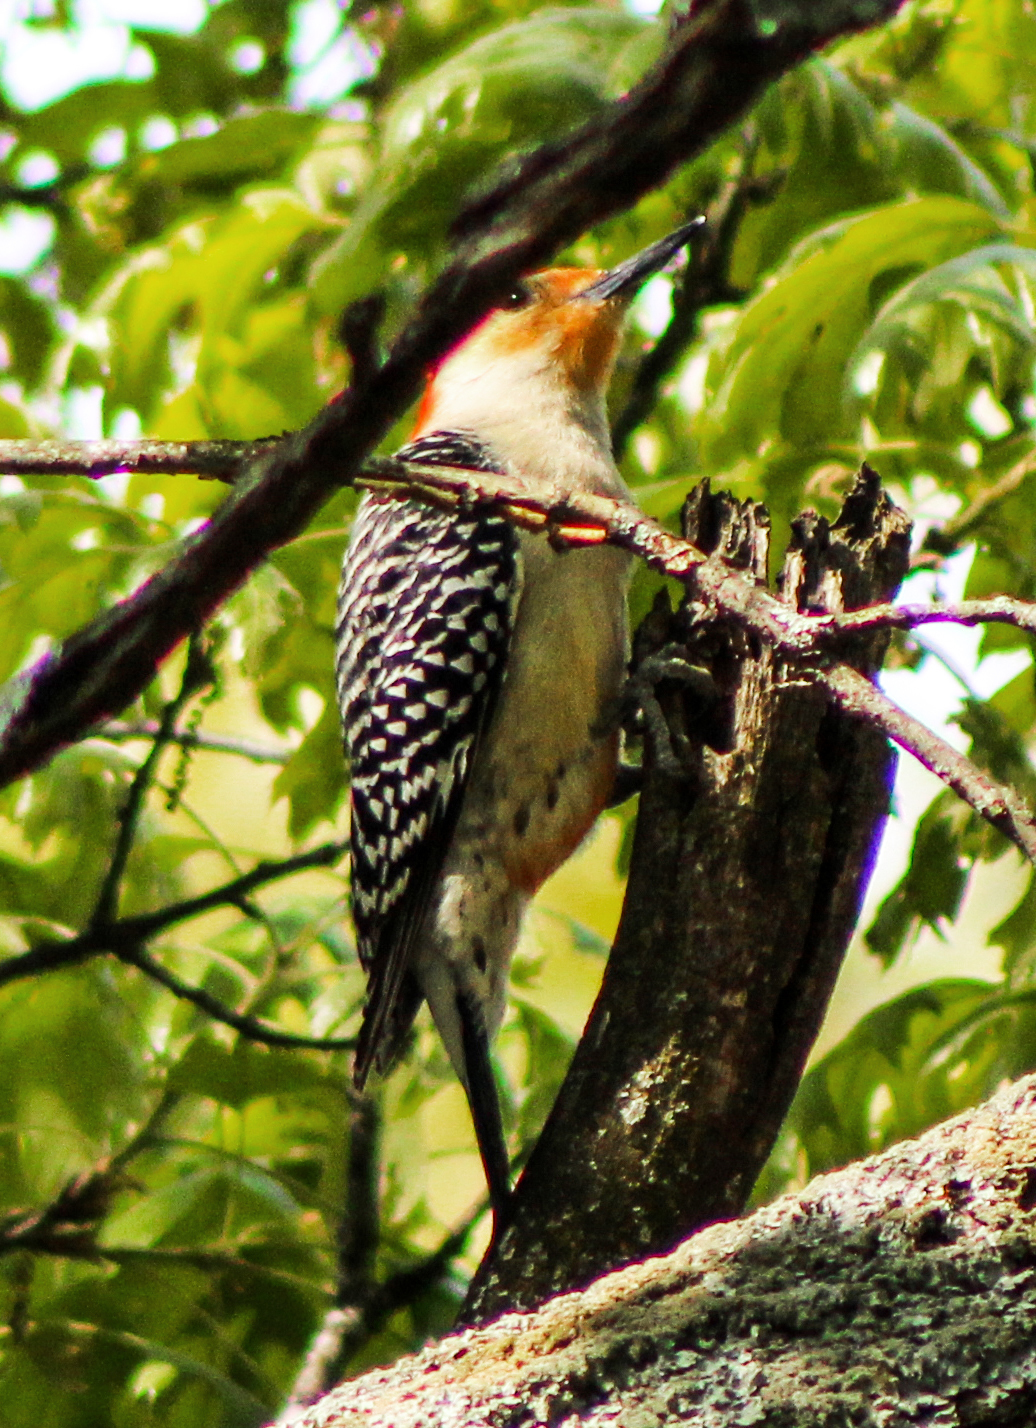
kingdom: Animalia
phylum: Chordata
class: Aves
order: Piciformes
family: Picidae
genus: Melanerpes
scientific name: Melanerpes carolinus
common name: Red-bellied woodpecker
